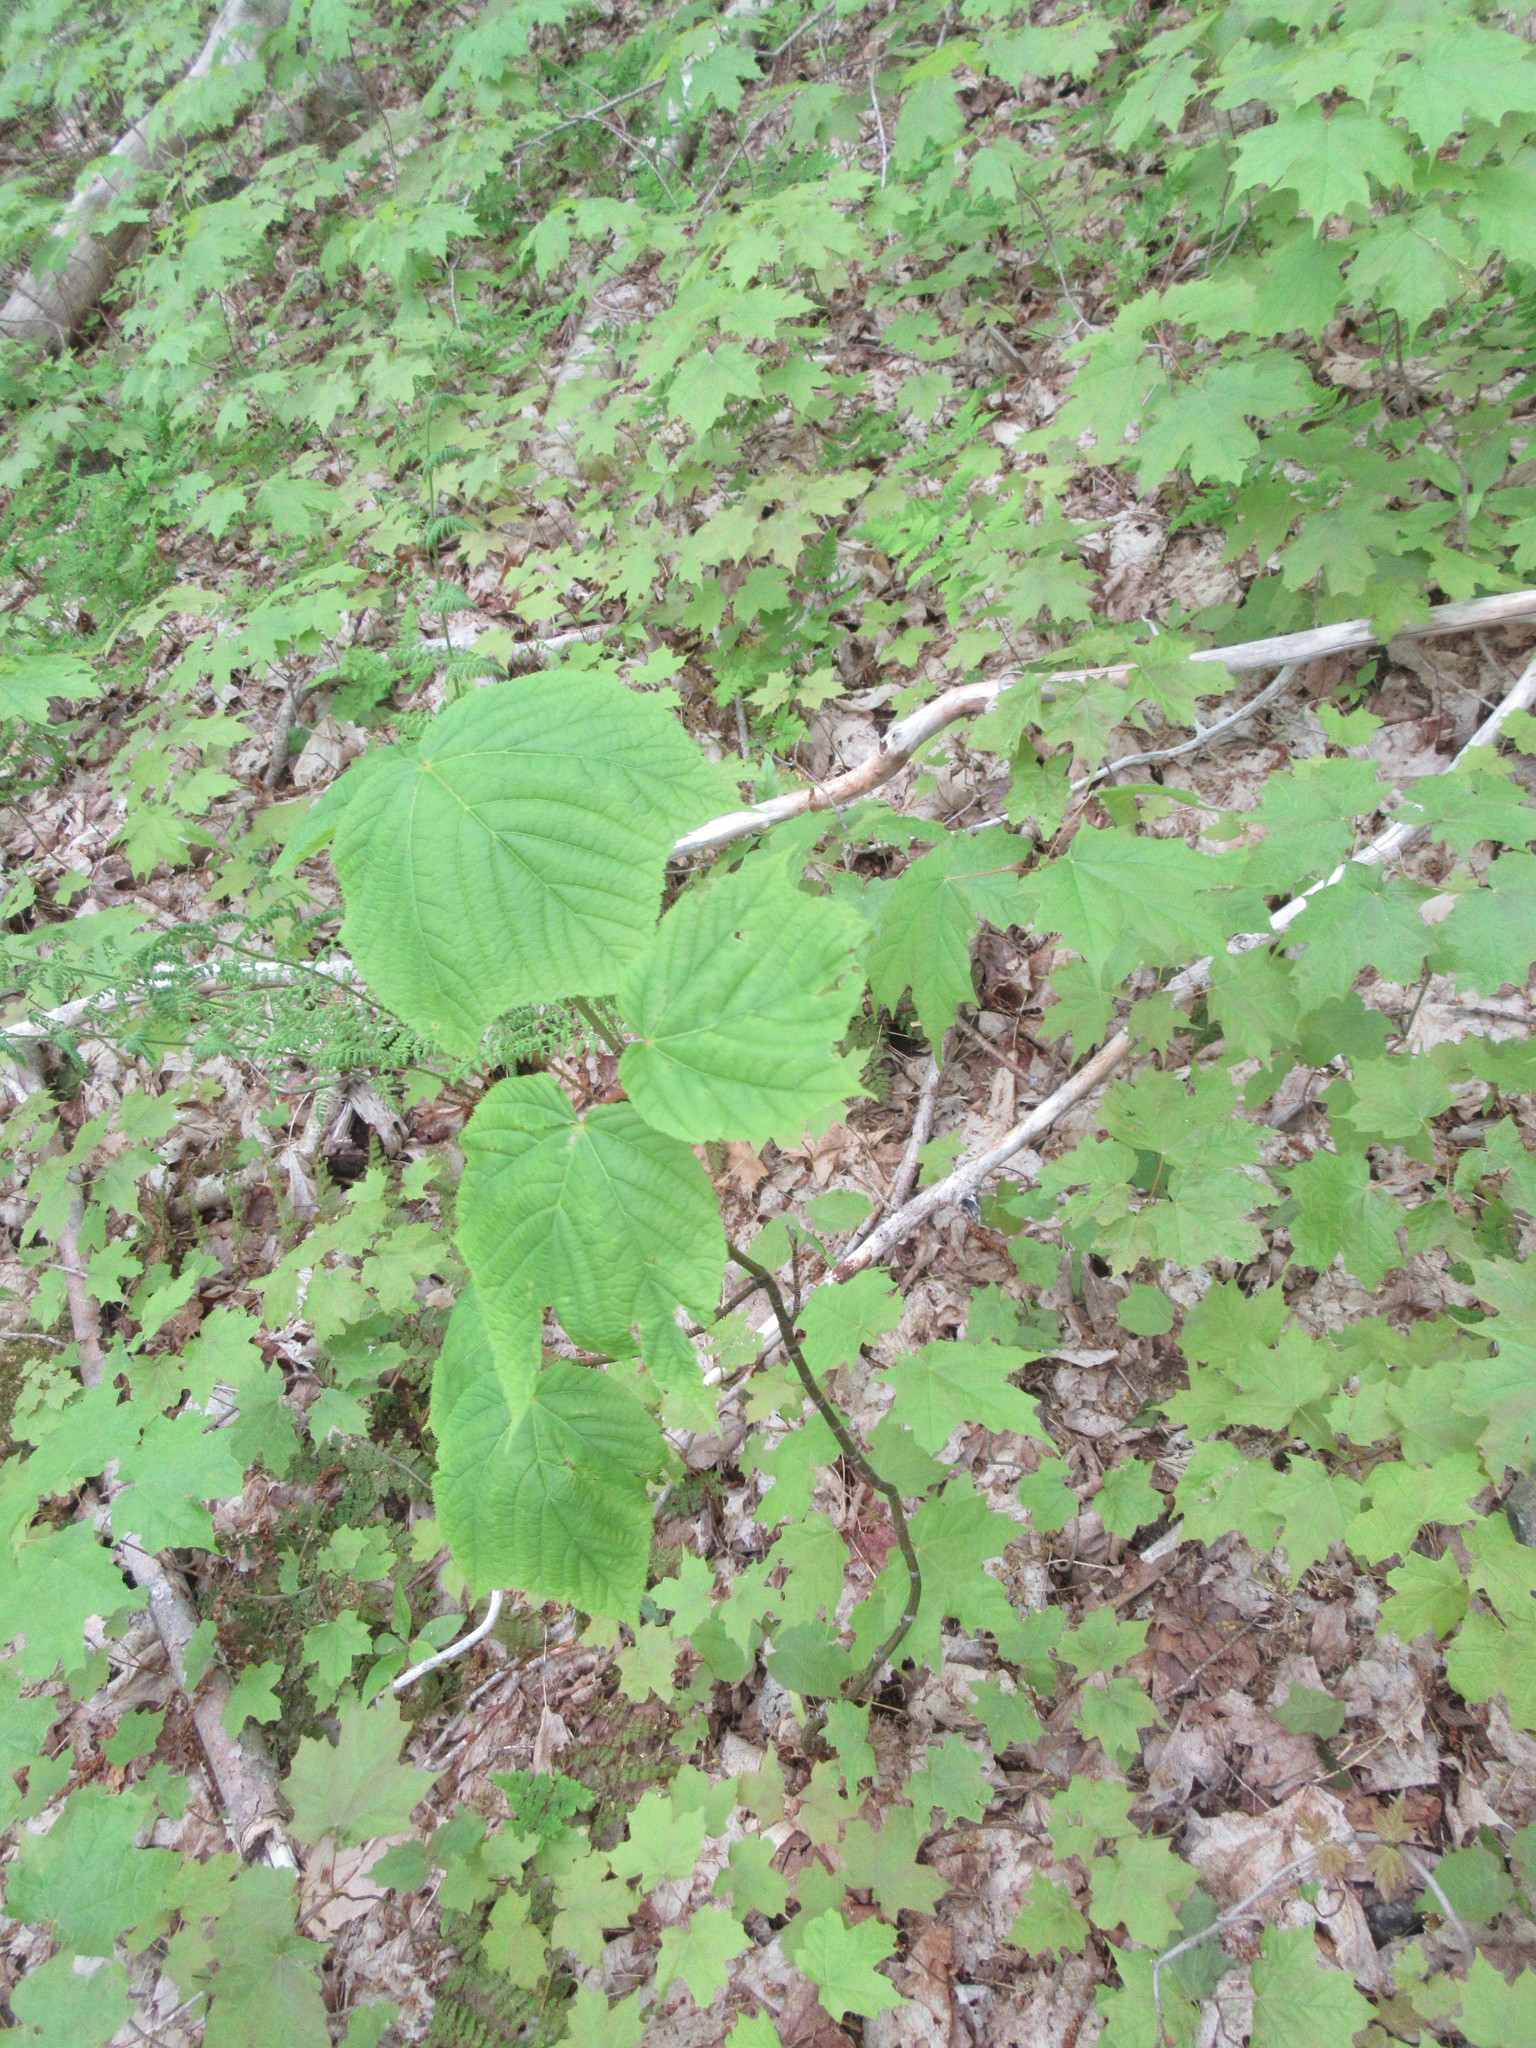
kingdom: Plantae
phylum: Tracheophyta
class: Magnoliopsida
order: Sapindales
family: Sapindaceae
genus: Acer
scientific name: Acer pensylvanicum
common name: Moosewood
